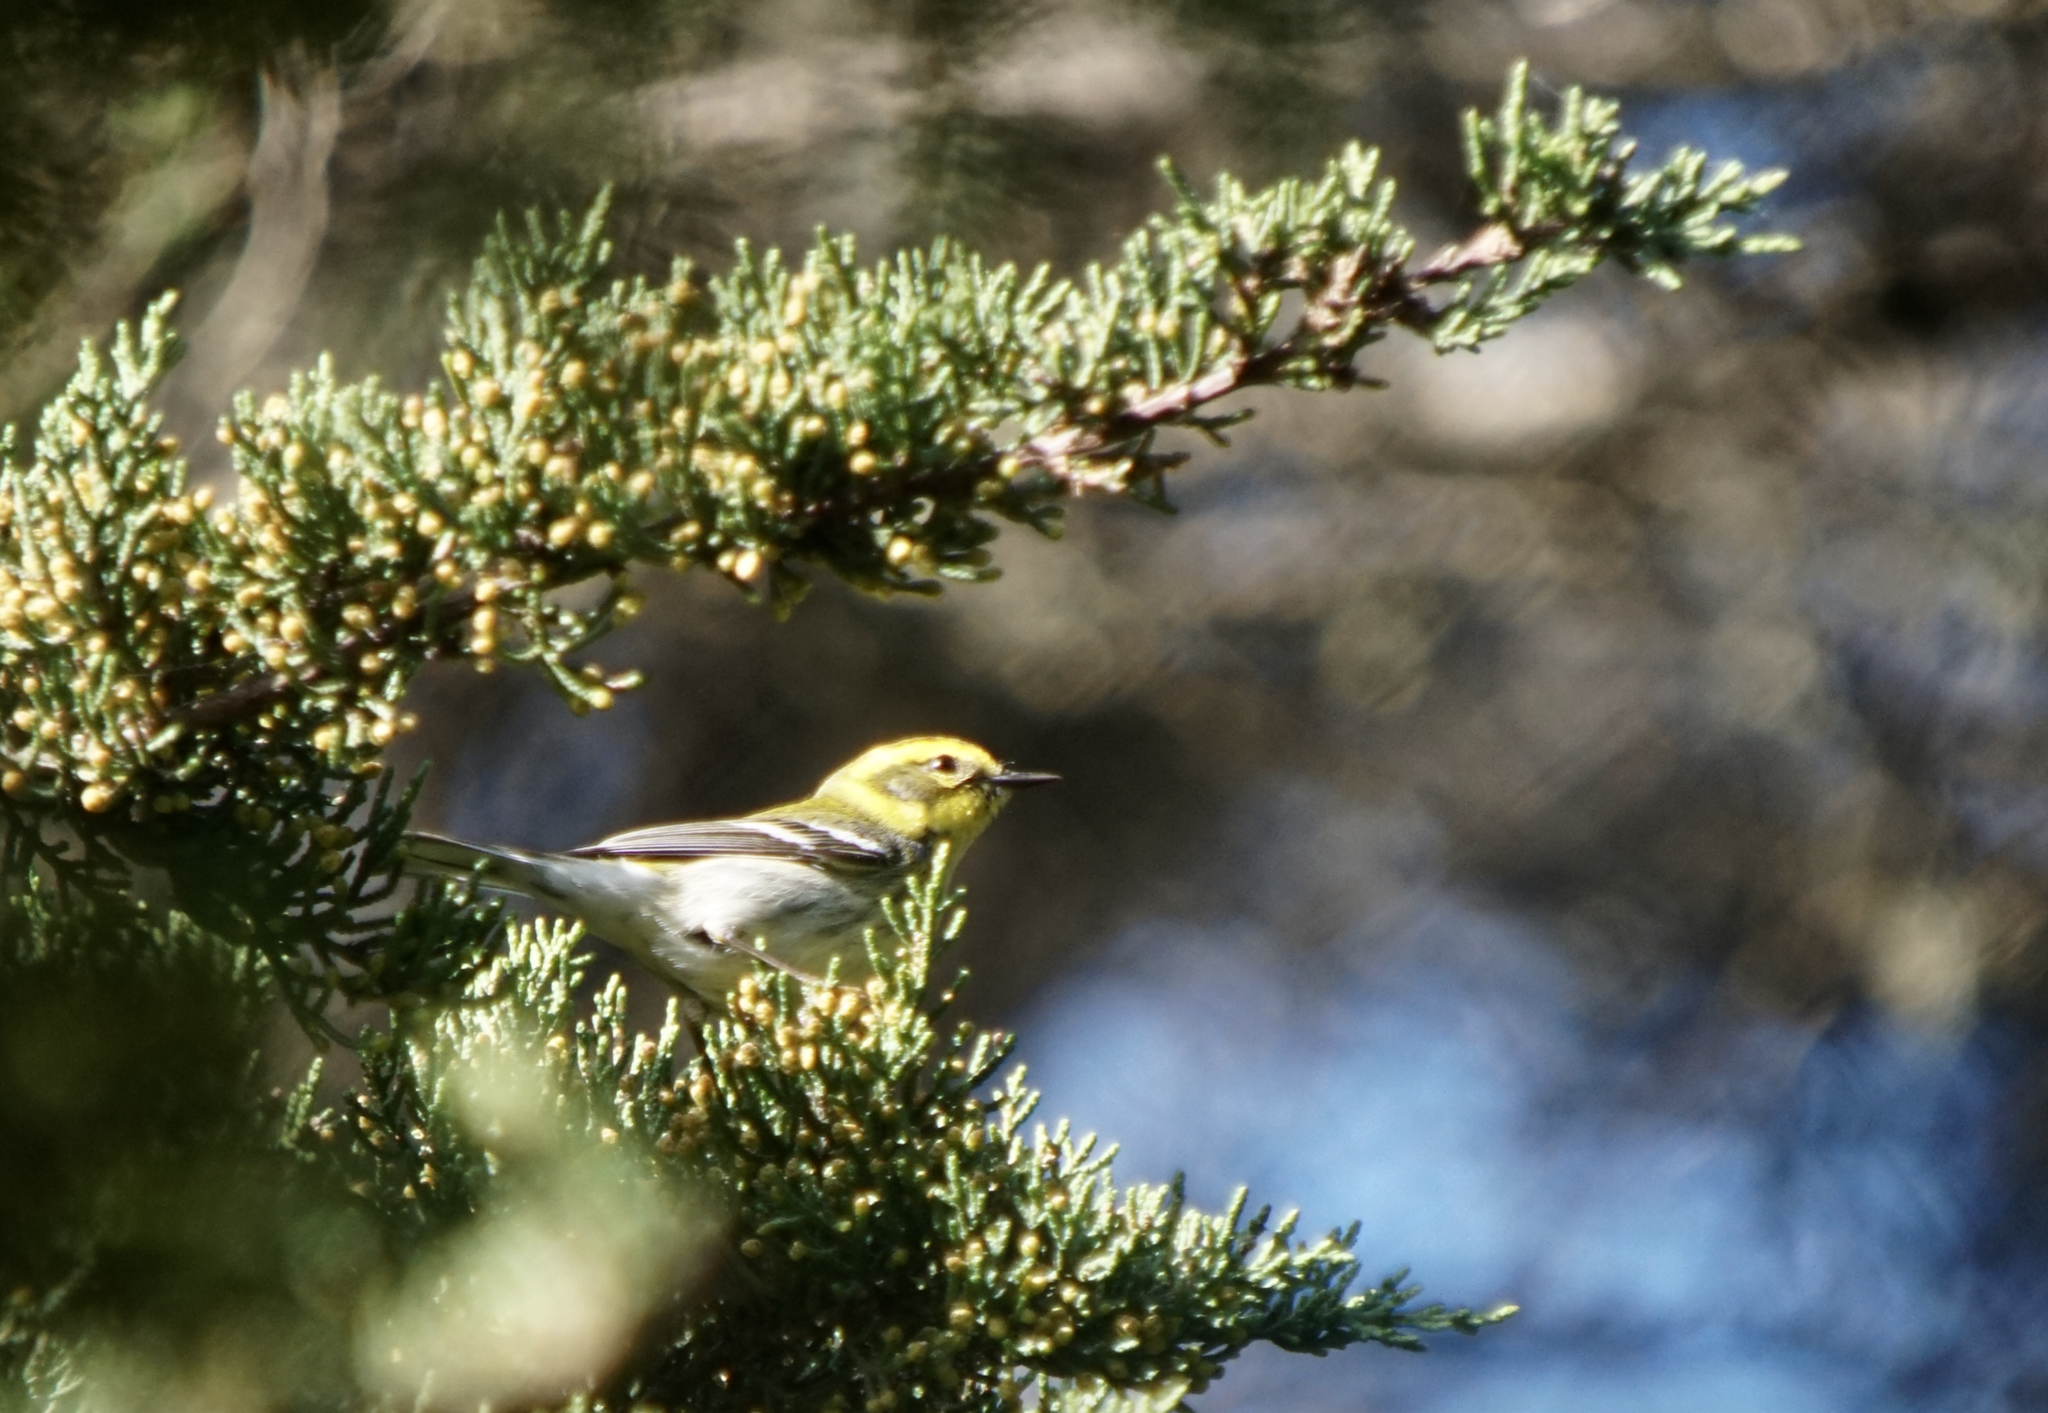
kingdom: Animalia
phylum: Chordata
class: Aves
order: Passeriformes
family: Parulidae
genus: Setophaga
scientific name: Setophaga townsendi
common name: Townsend's warbler
